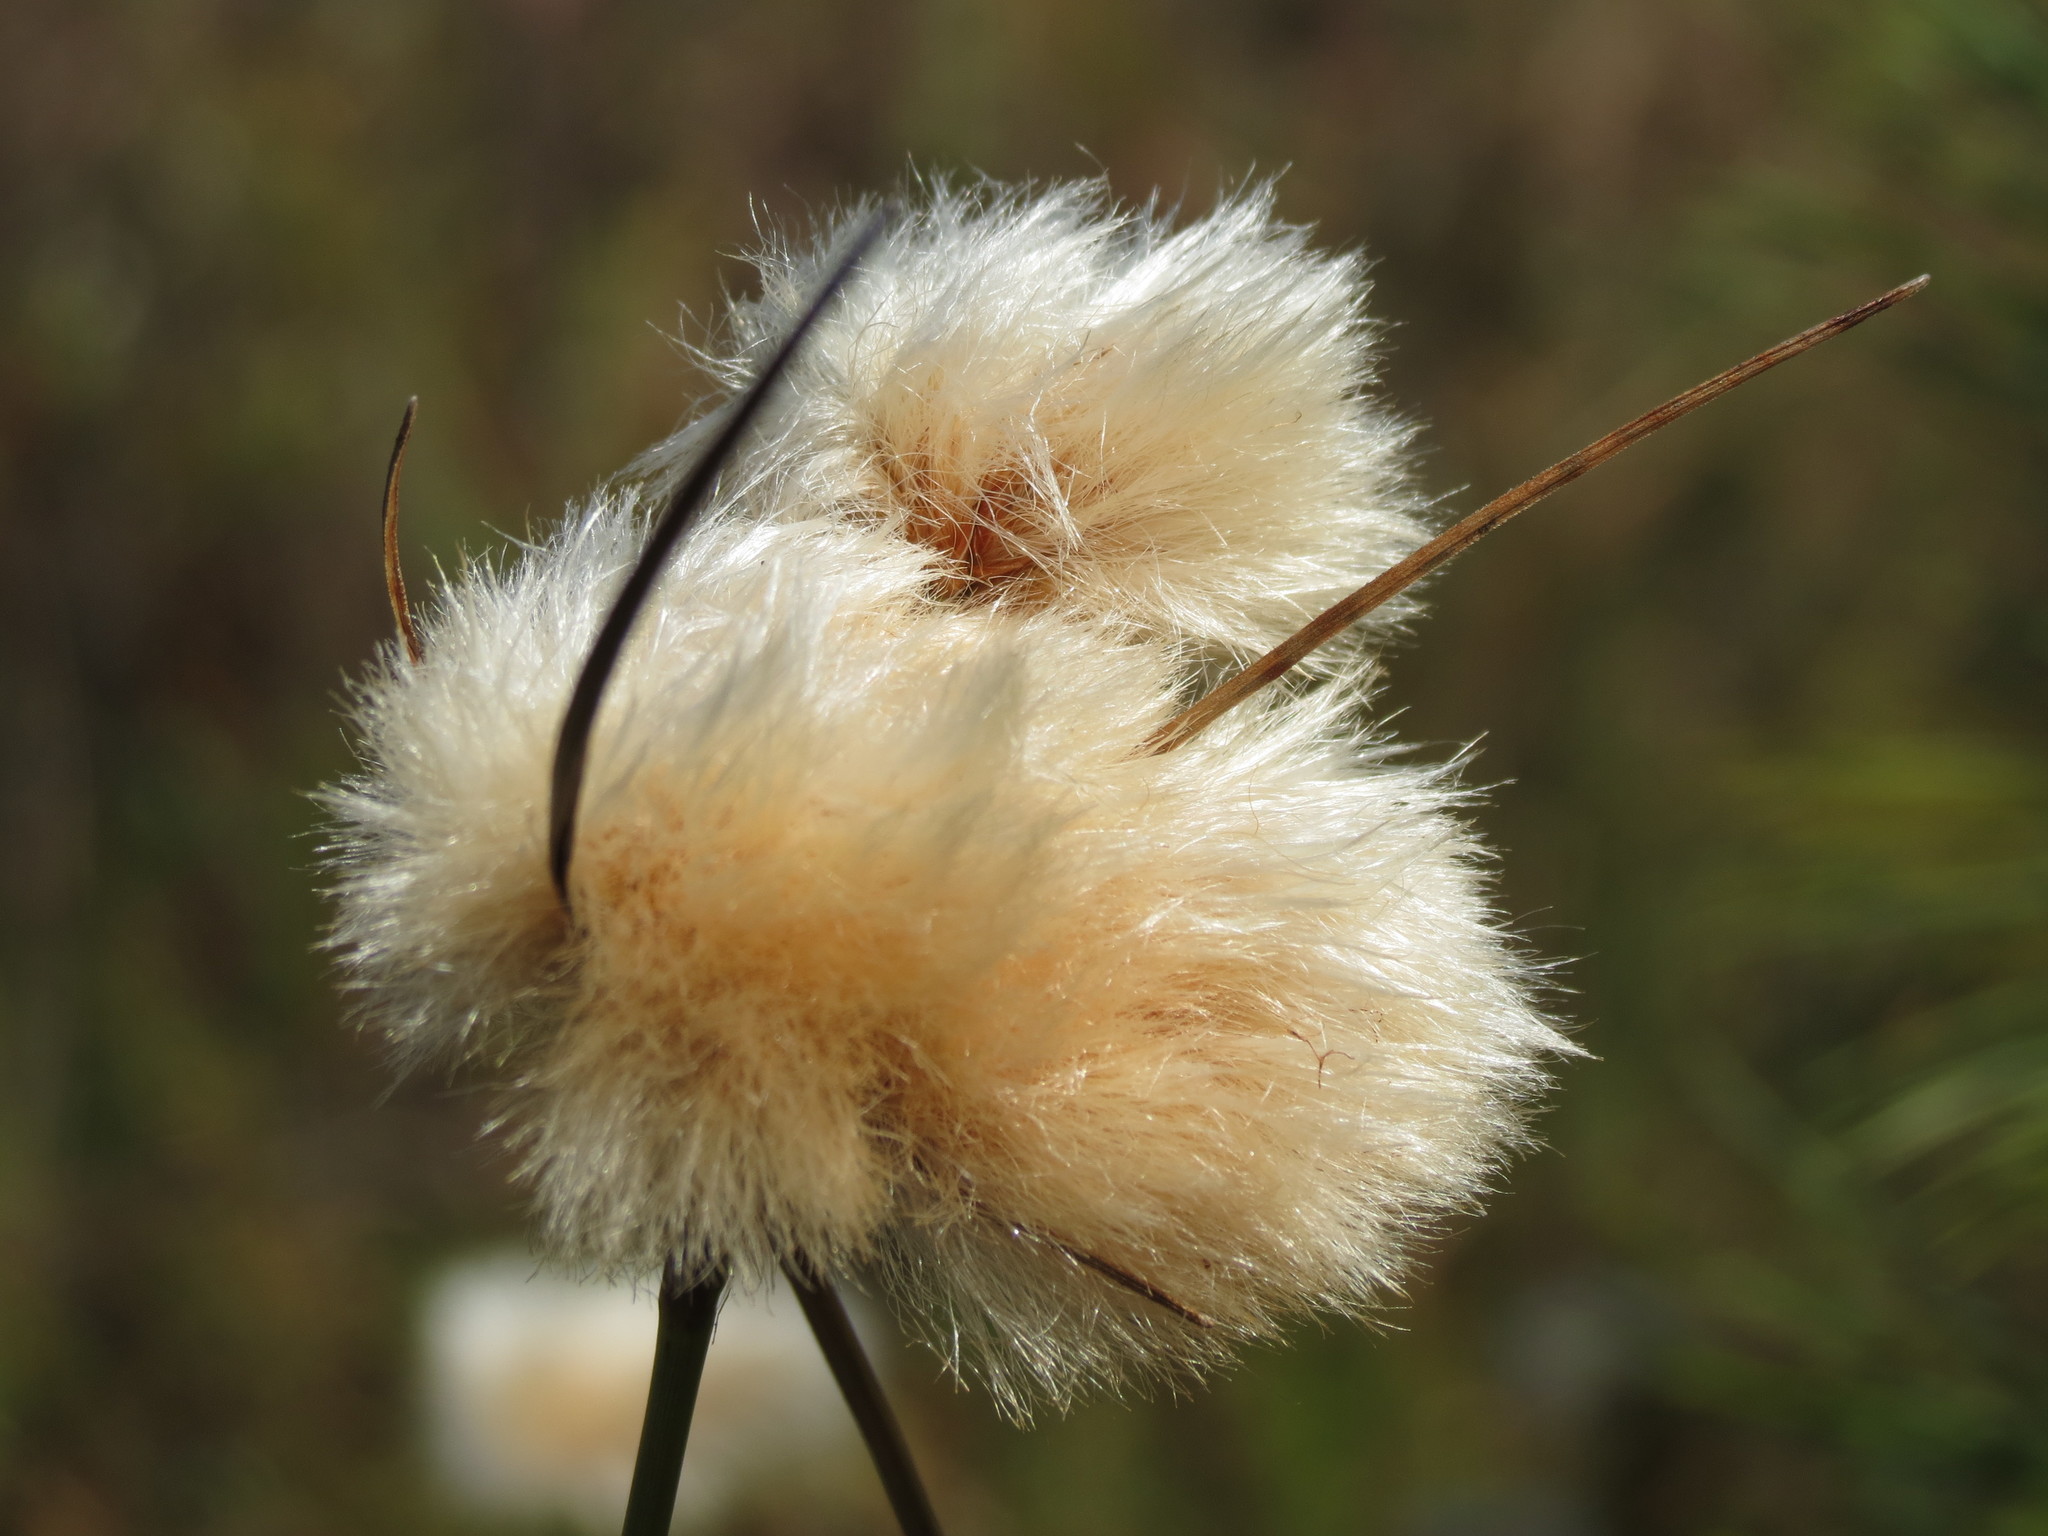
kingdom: Plantae
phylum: Tracheophyta
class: Liliopsida
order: Poales
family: Cyperaceae
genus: Eriophorum
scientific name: Eriophorum virginicum
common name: Tawny cottongrass
